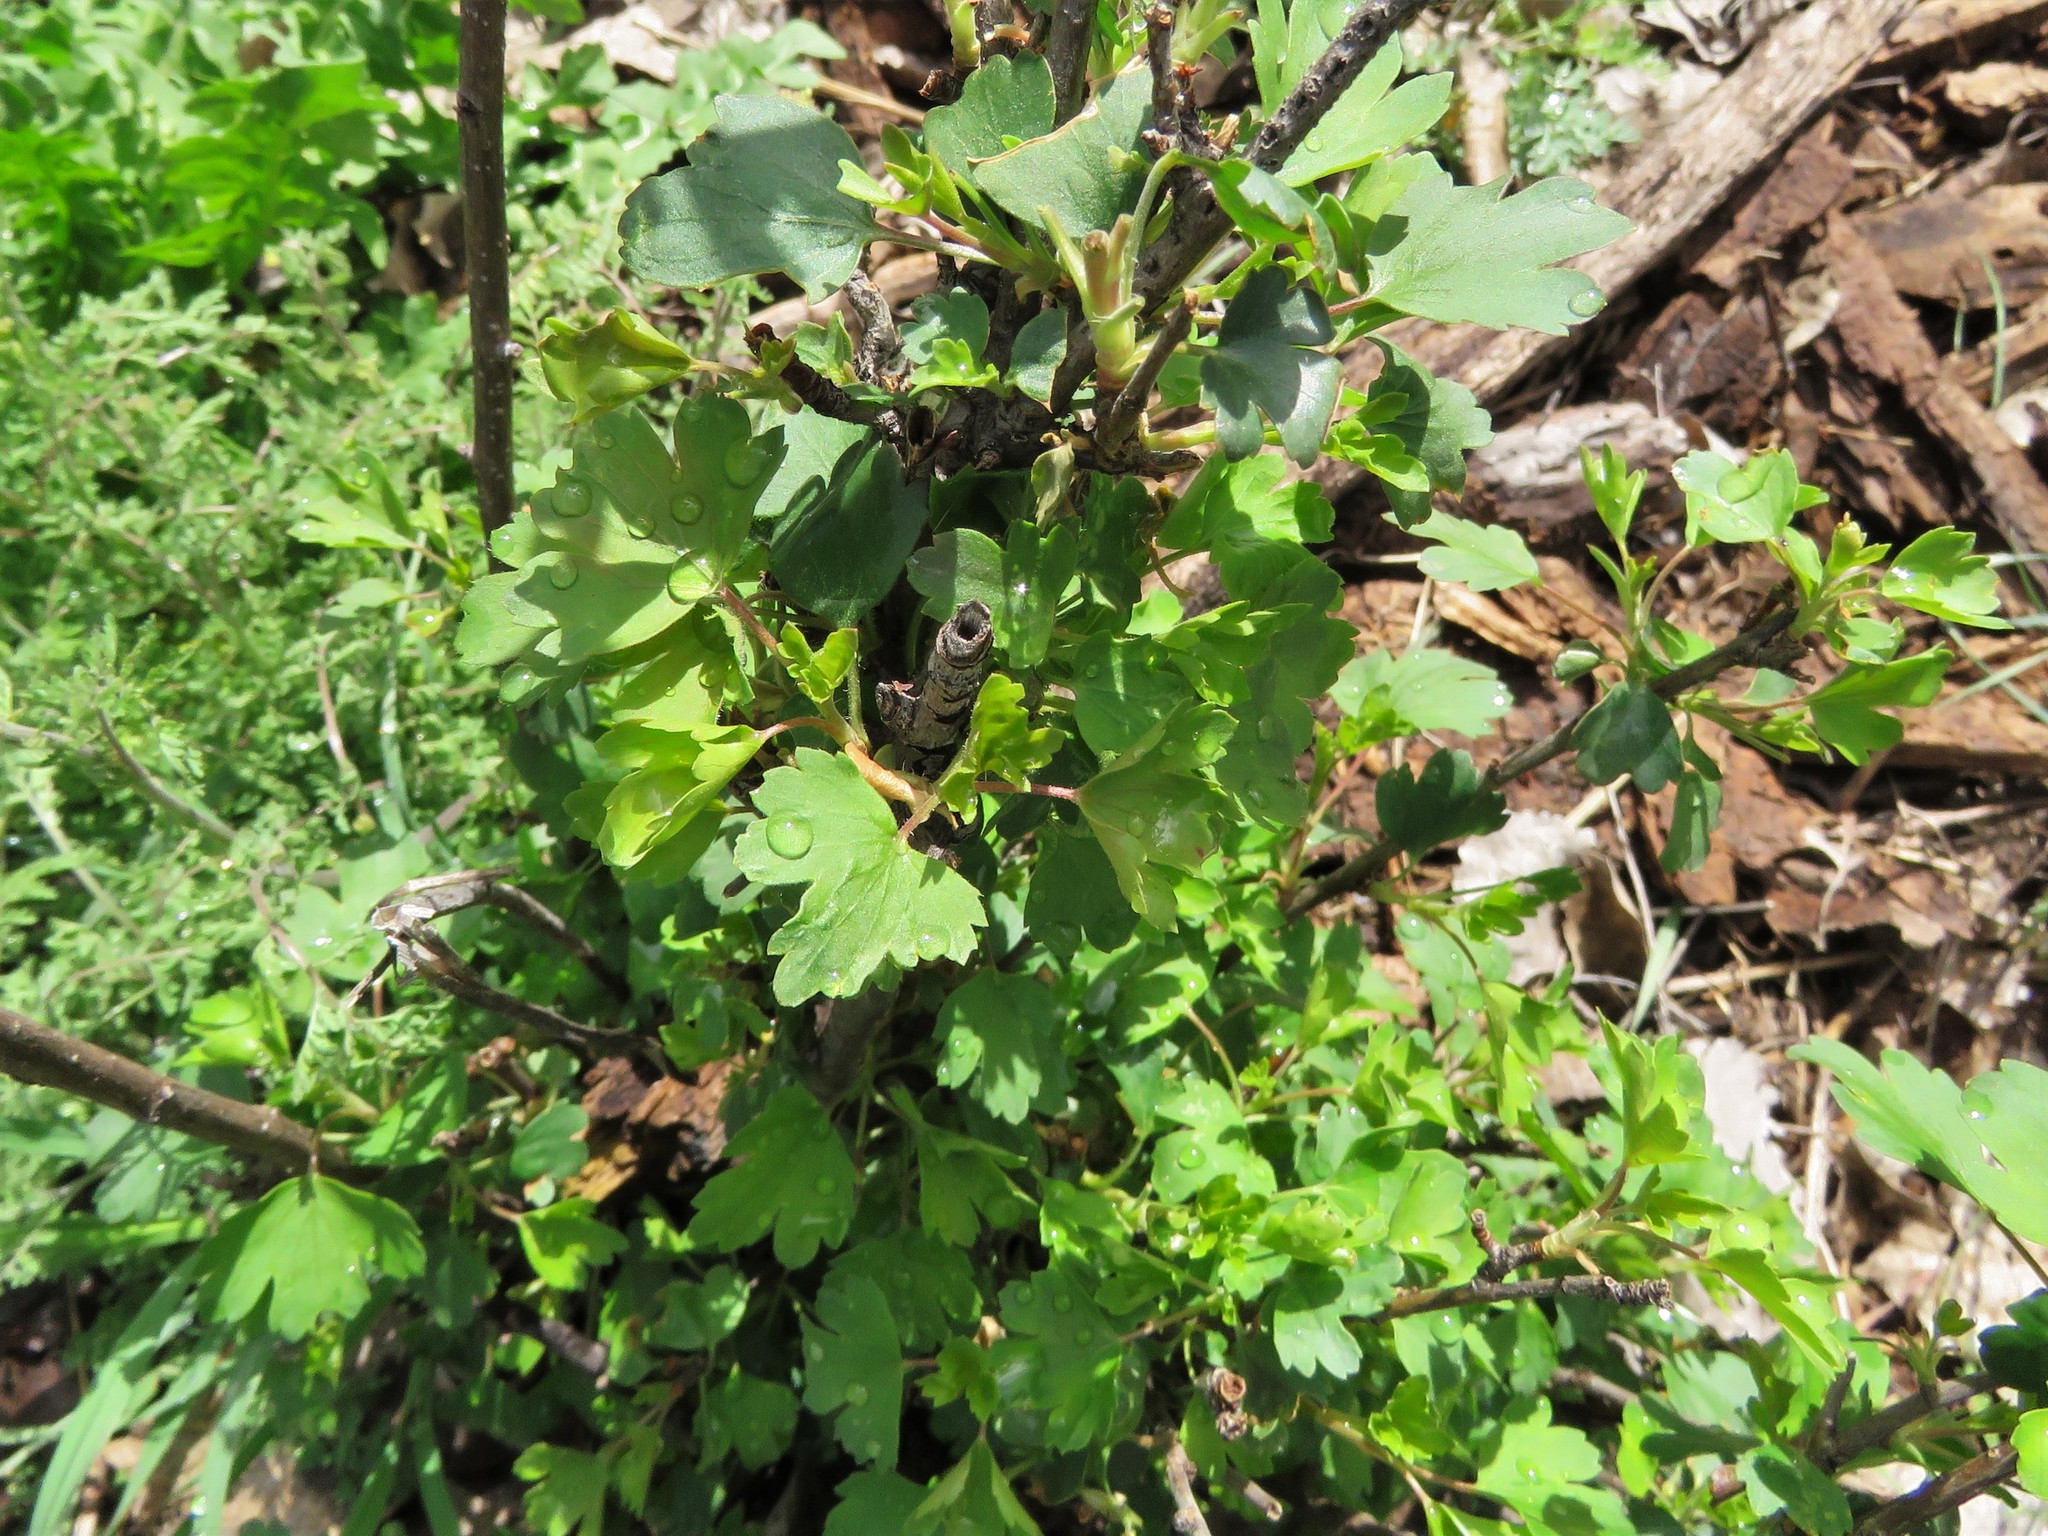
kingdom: Plantae
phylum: Tracheophyta
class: Magnoliopsida
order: Saxifragales
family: Grossulariaceae
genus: Ribes
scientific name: Ribes aureum
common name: Golden currant
